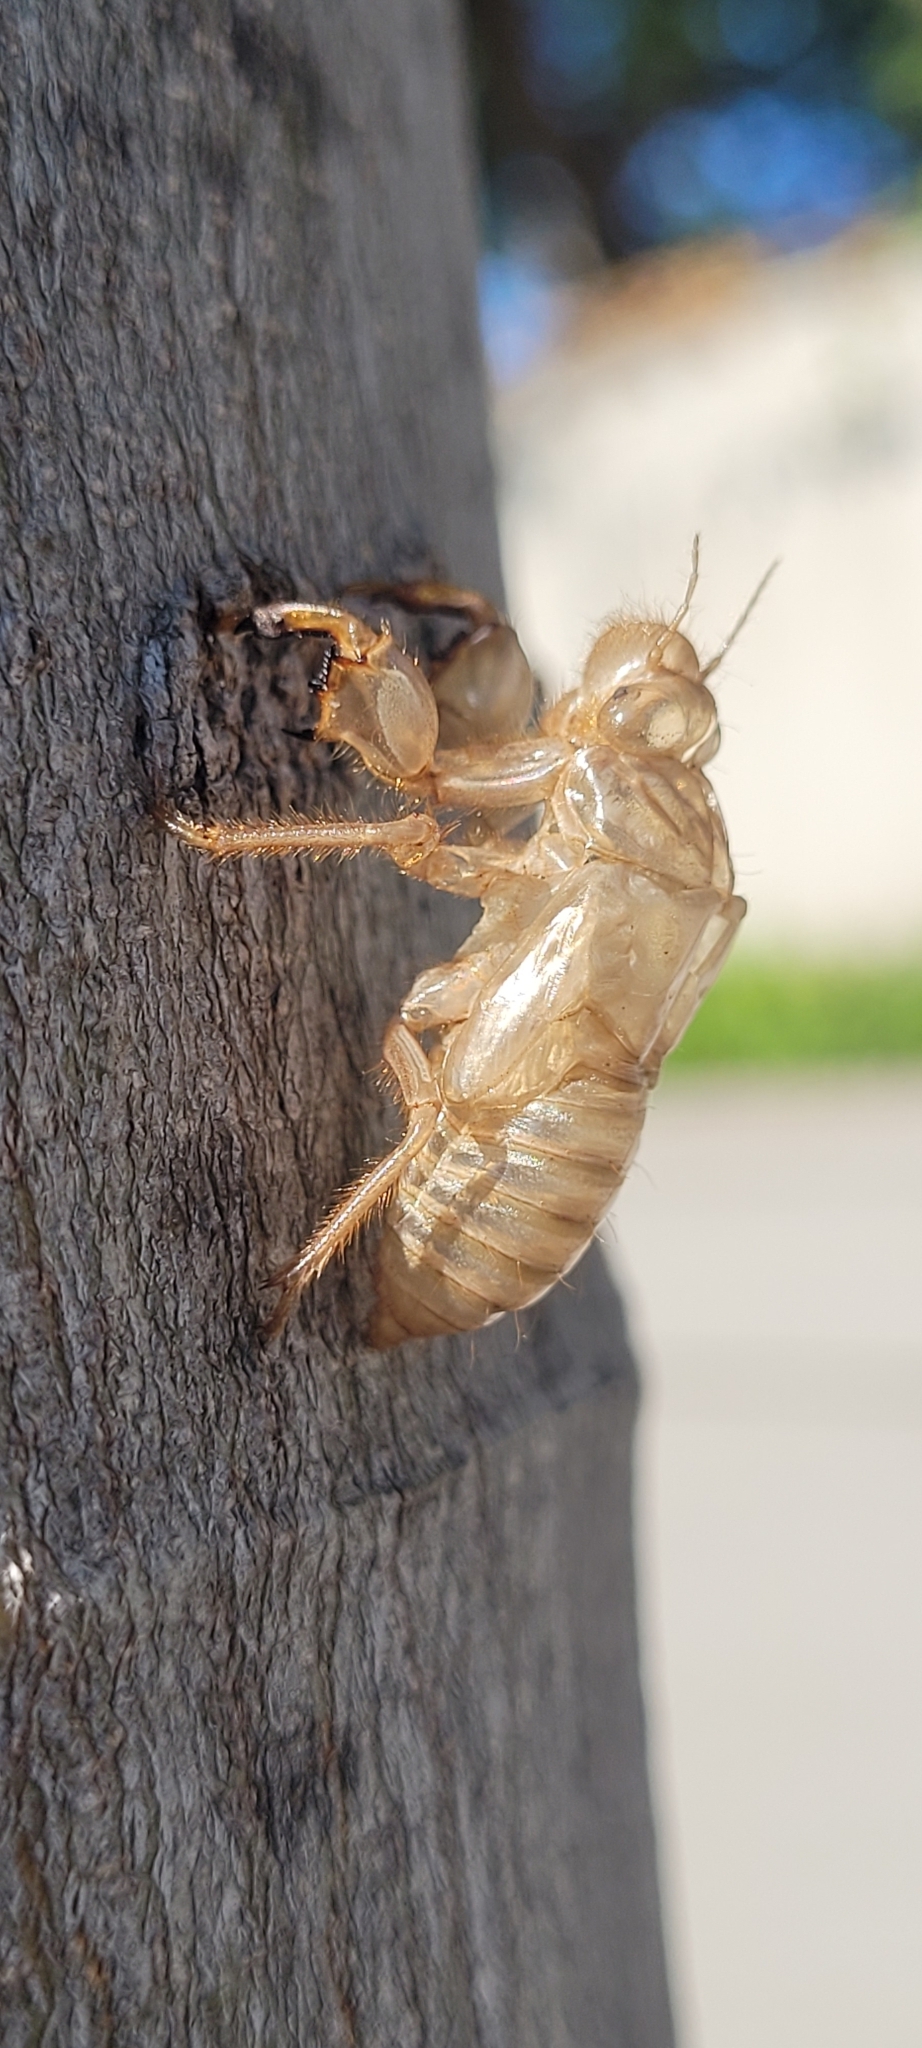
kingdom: Animalia
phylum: Arthropoda
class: Insecta
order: Hemiptera
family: Cicadidae
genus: Cicada
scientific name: Cicada orni
